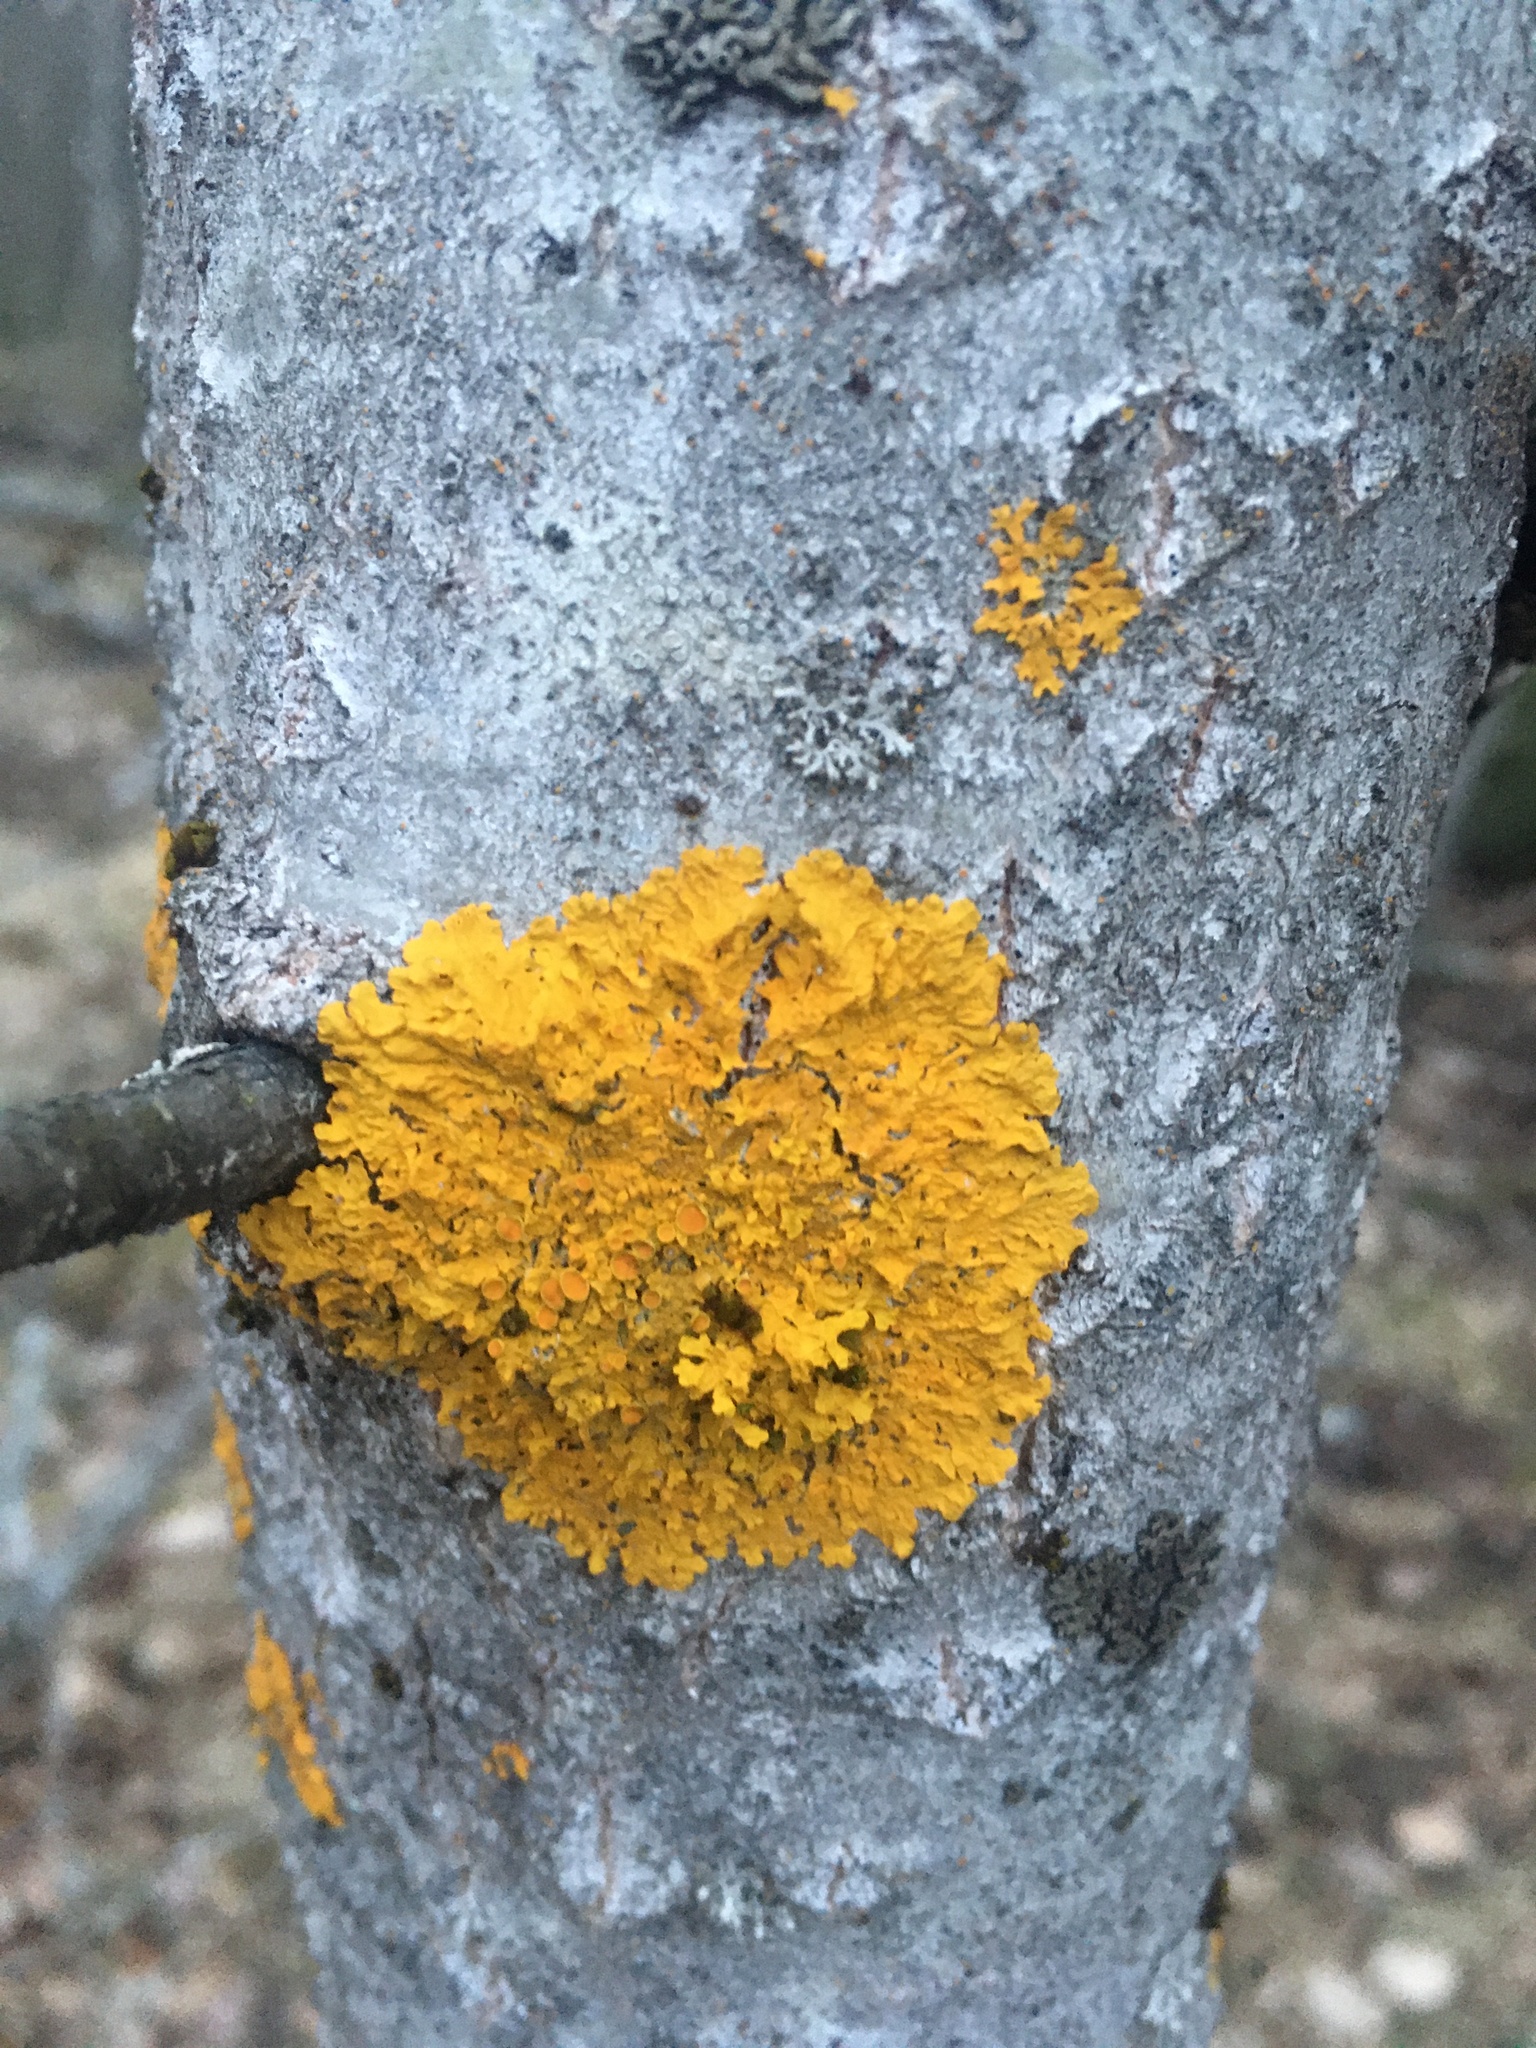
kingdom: Fungi
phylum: Ascomycota
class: Lecanoromycetes
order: Teloschistales
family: Teloschistaceae
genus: Xanthoria
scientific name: Xanthoria parietina
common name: Common orange lichen
